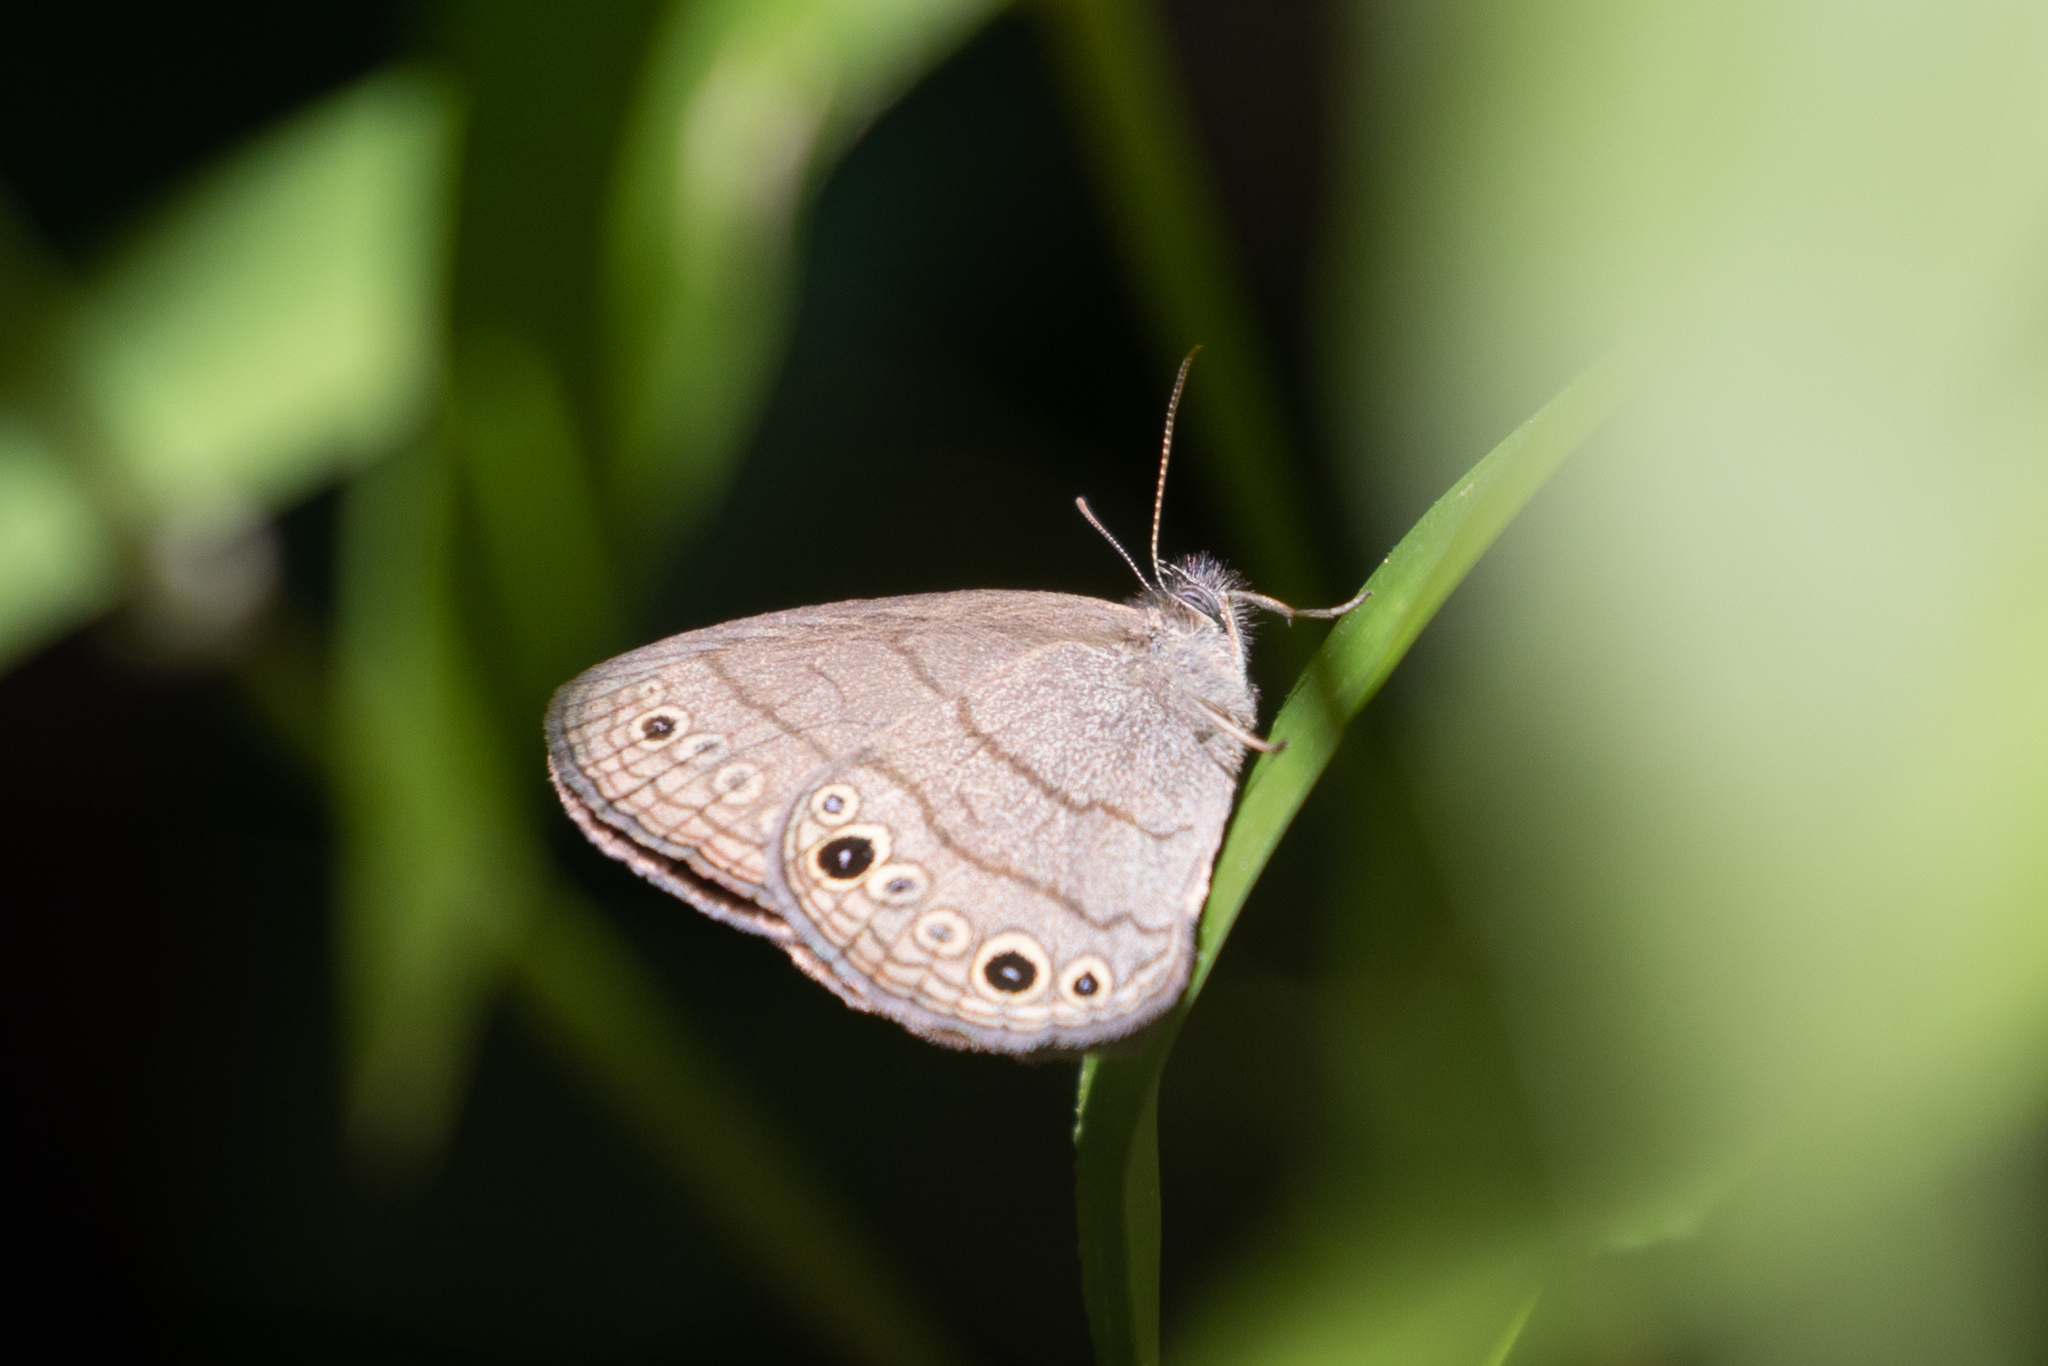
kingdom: Animalia
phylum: Arthropoda
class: Insecta
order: Lepidoptera
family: Nymphalidae
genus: Hermeuptychia
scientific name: Hermeuptychia hermes
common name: Hermes satyr
